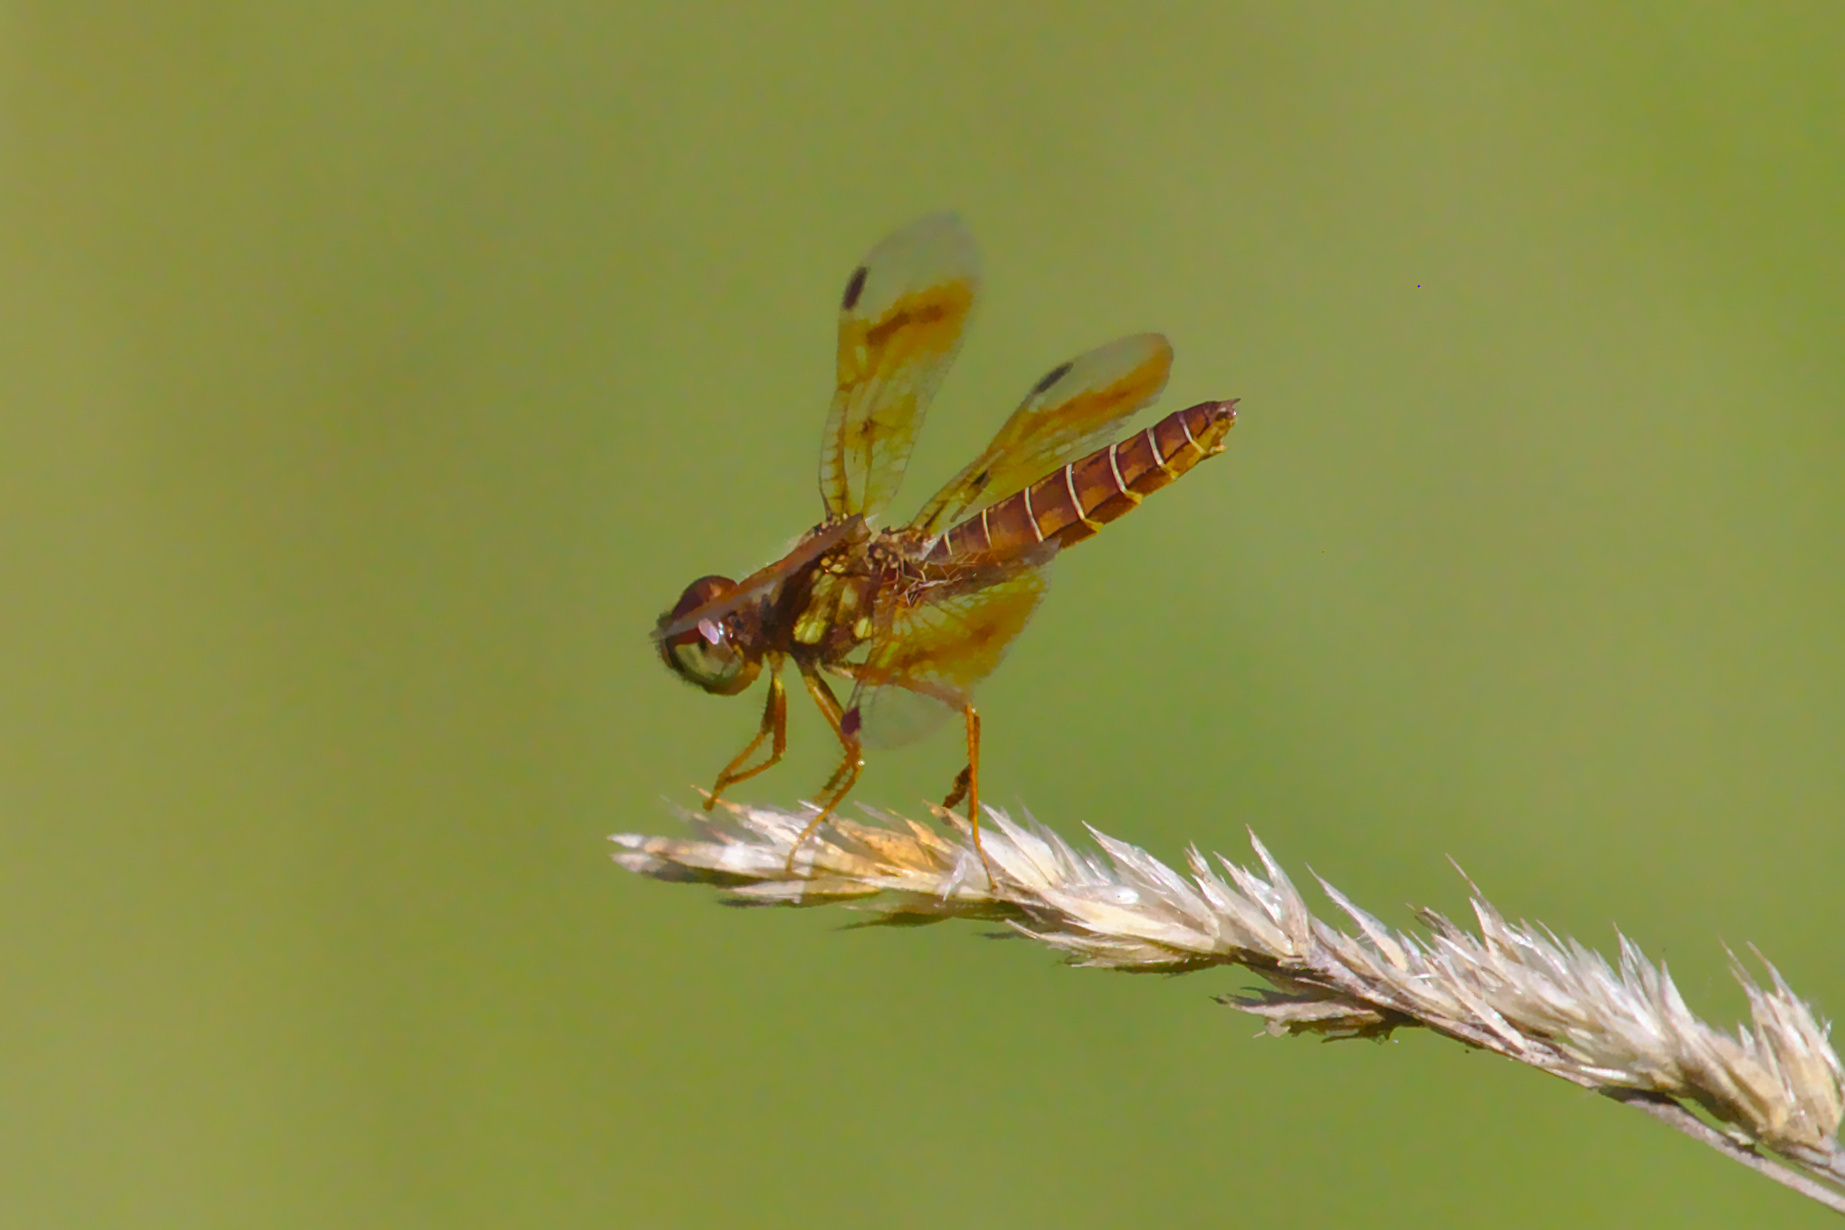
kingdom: Animalia
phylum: Arthropoda
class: Insecta
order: Odonata
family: Libellulidae
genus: Perithemis
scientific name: Perithemis tenera
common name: Eastern amberwing
